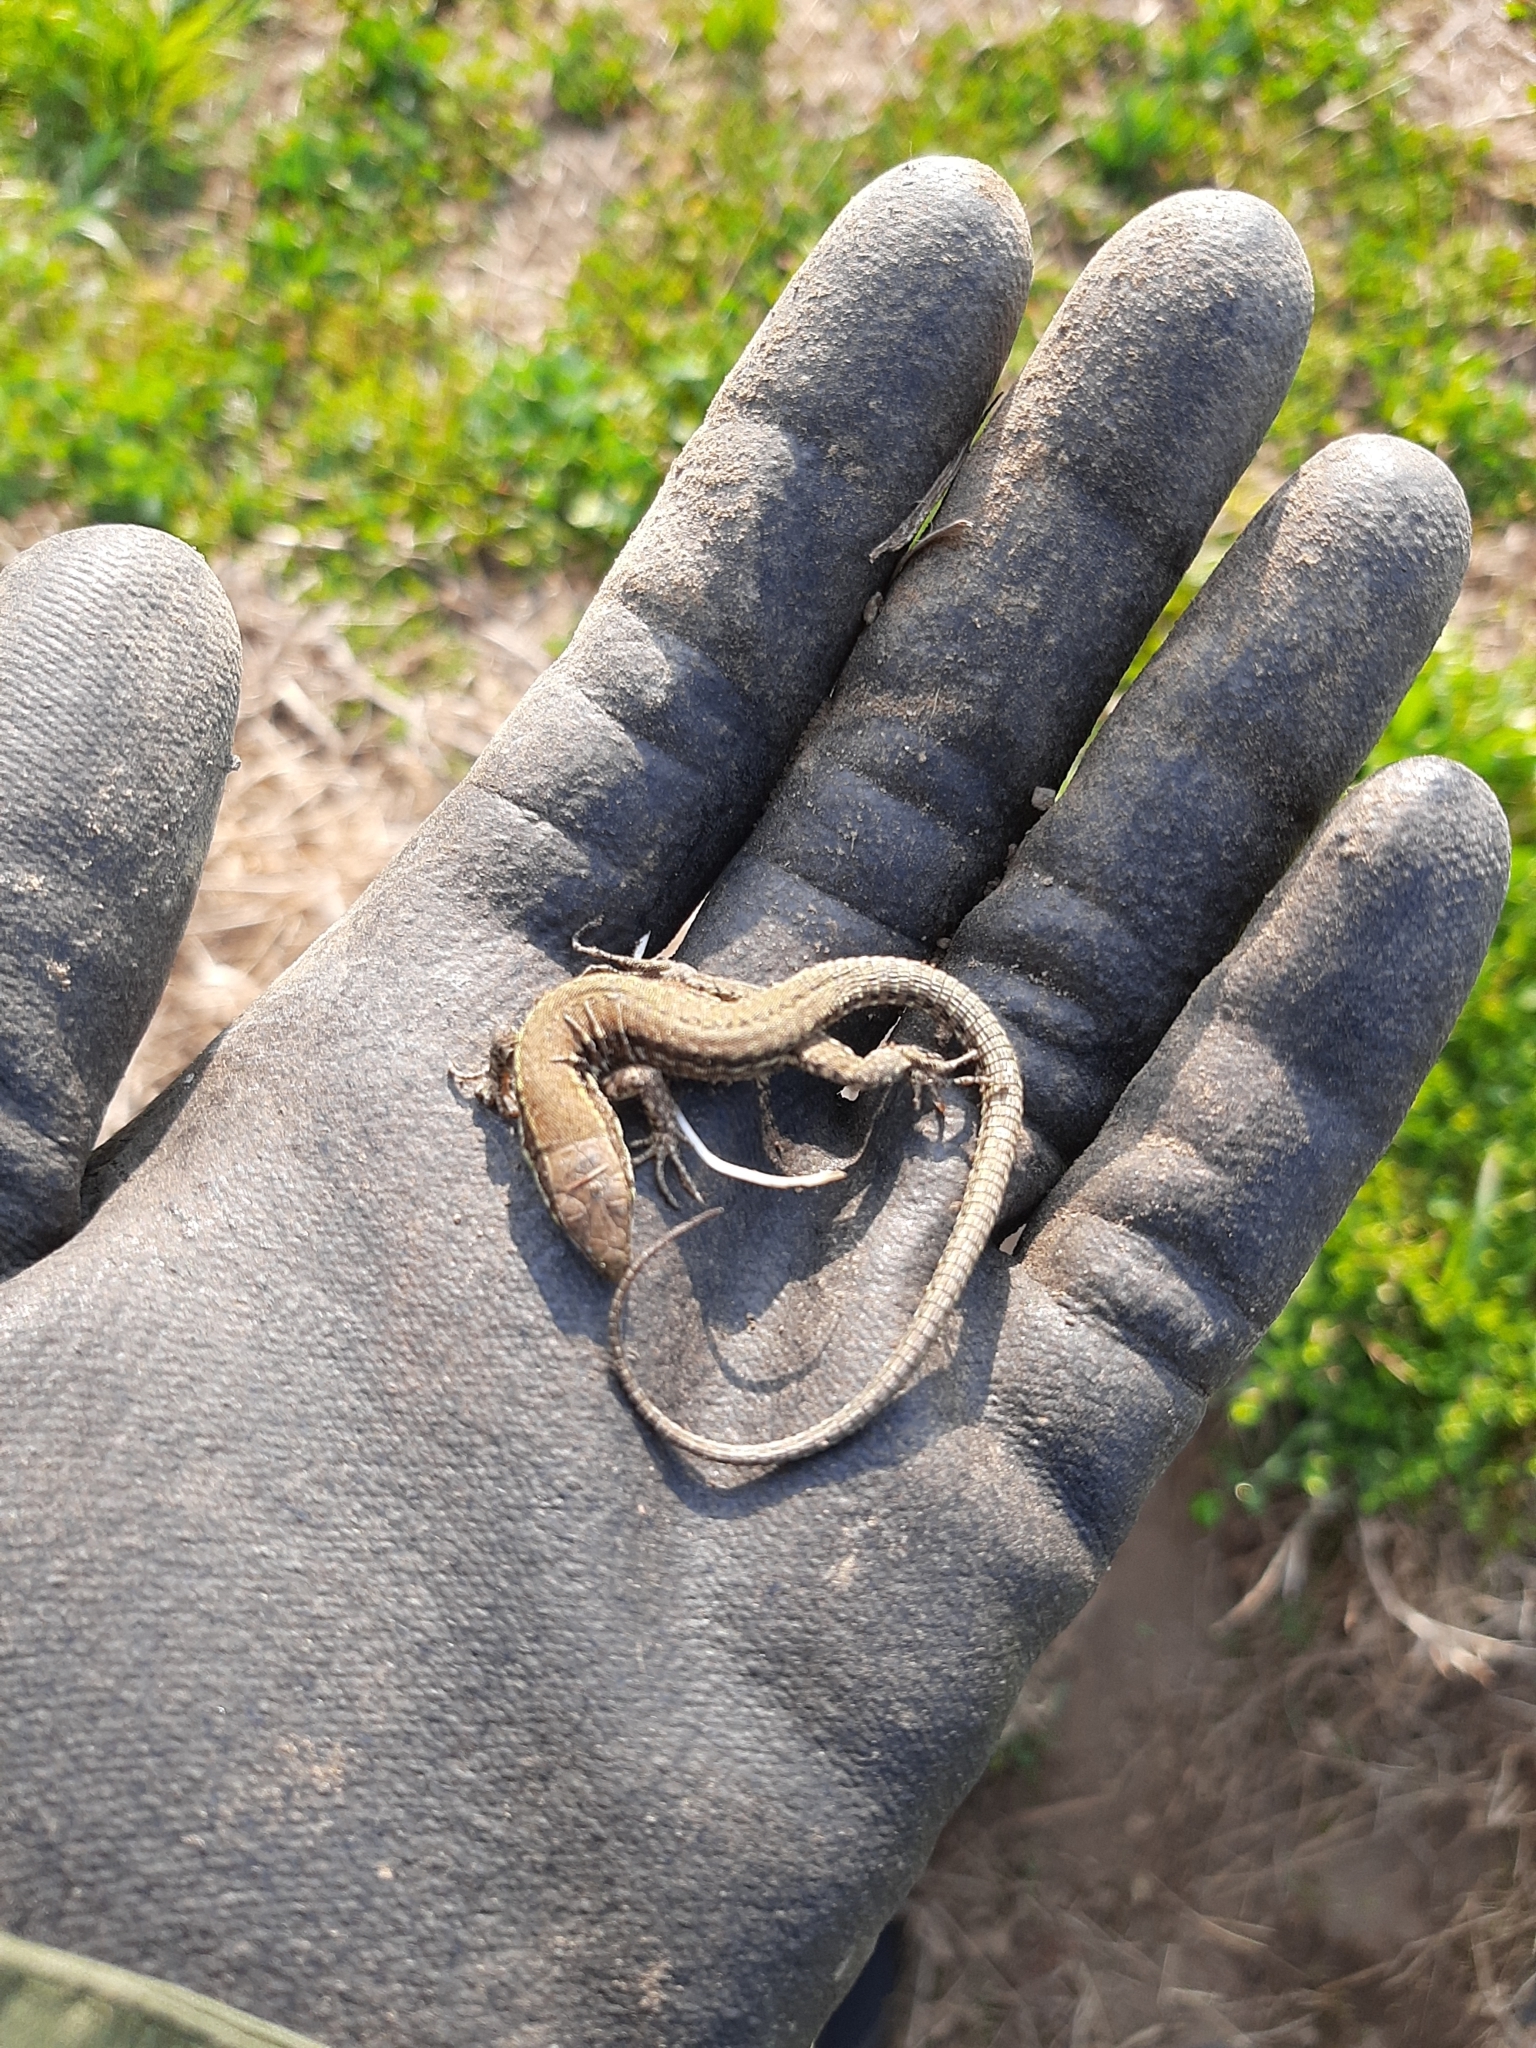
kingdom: Animalia
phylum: Chordata
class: Squamata
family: Lacertidae
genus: Podarcis
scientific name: Podarcis muralis
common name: Common wall lizard
